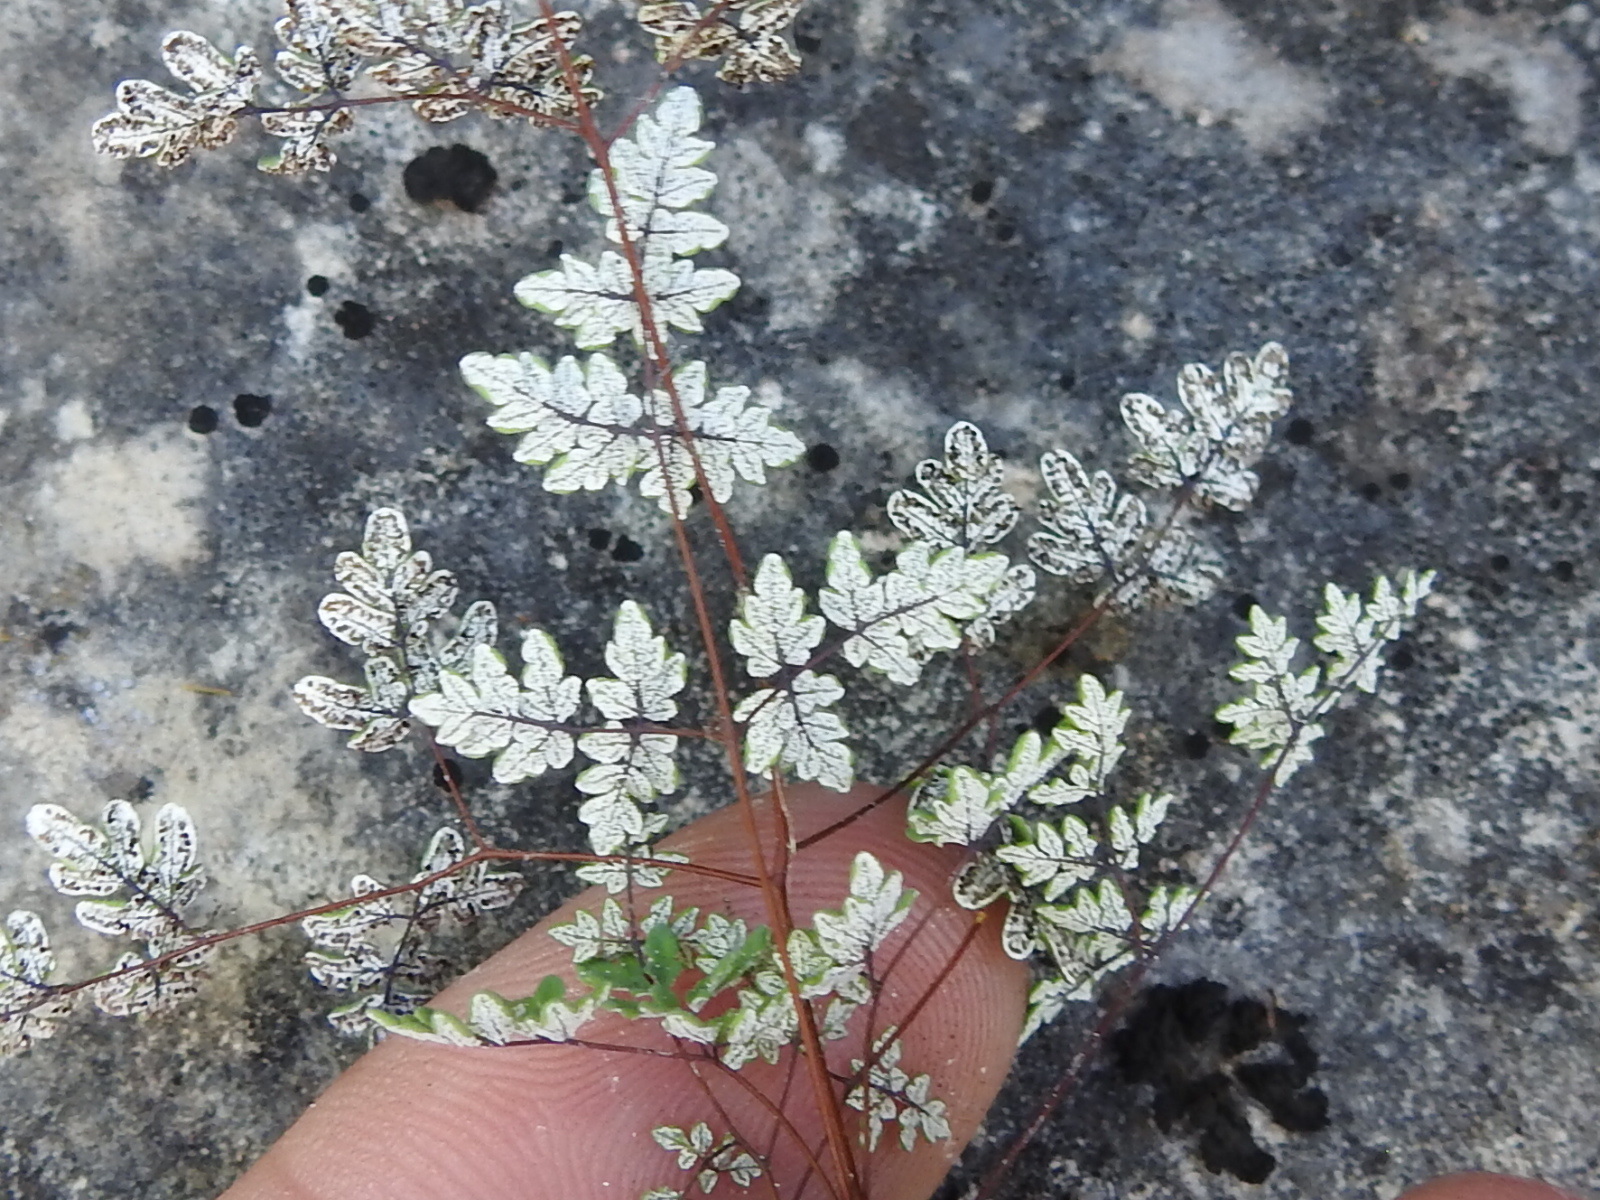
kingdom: Plantae
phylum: Tracheophyta
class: Polypodiopsida
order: Polypodiales
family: Pteridaceae
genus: Argyrochosma
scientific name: Argyrochosma dealbata
